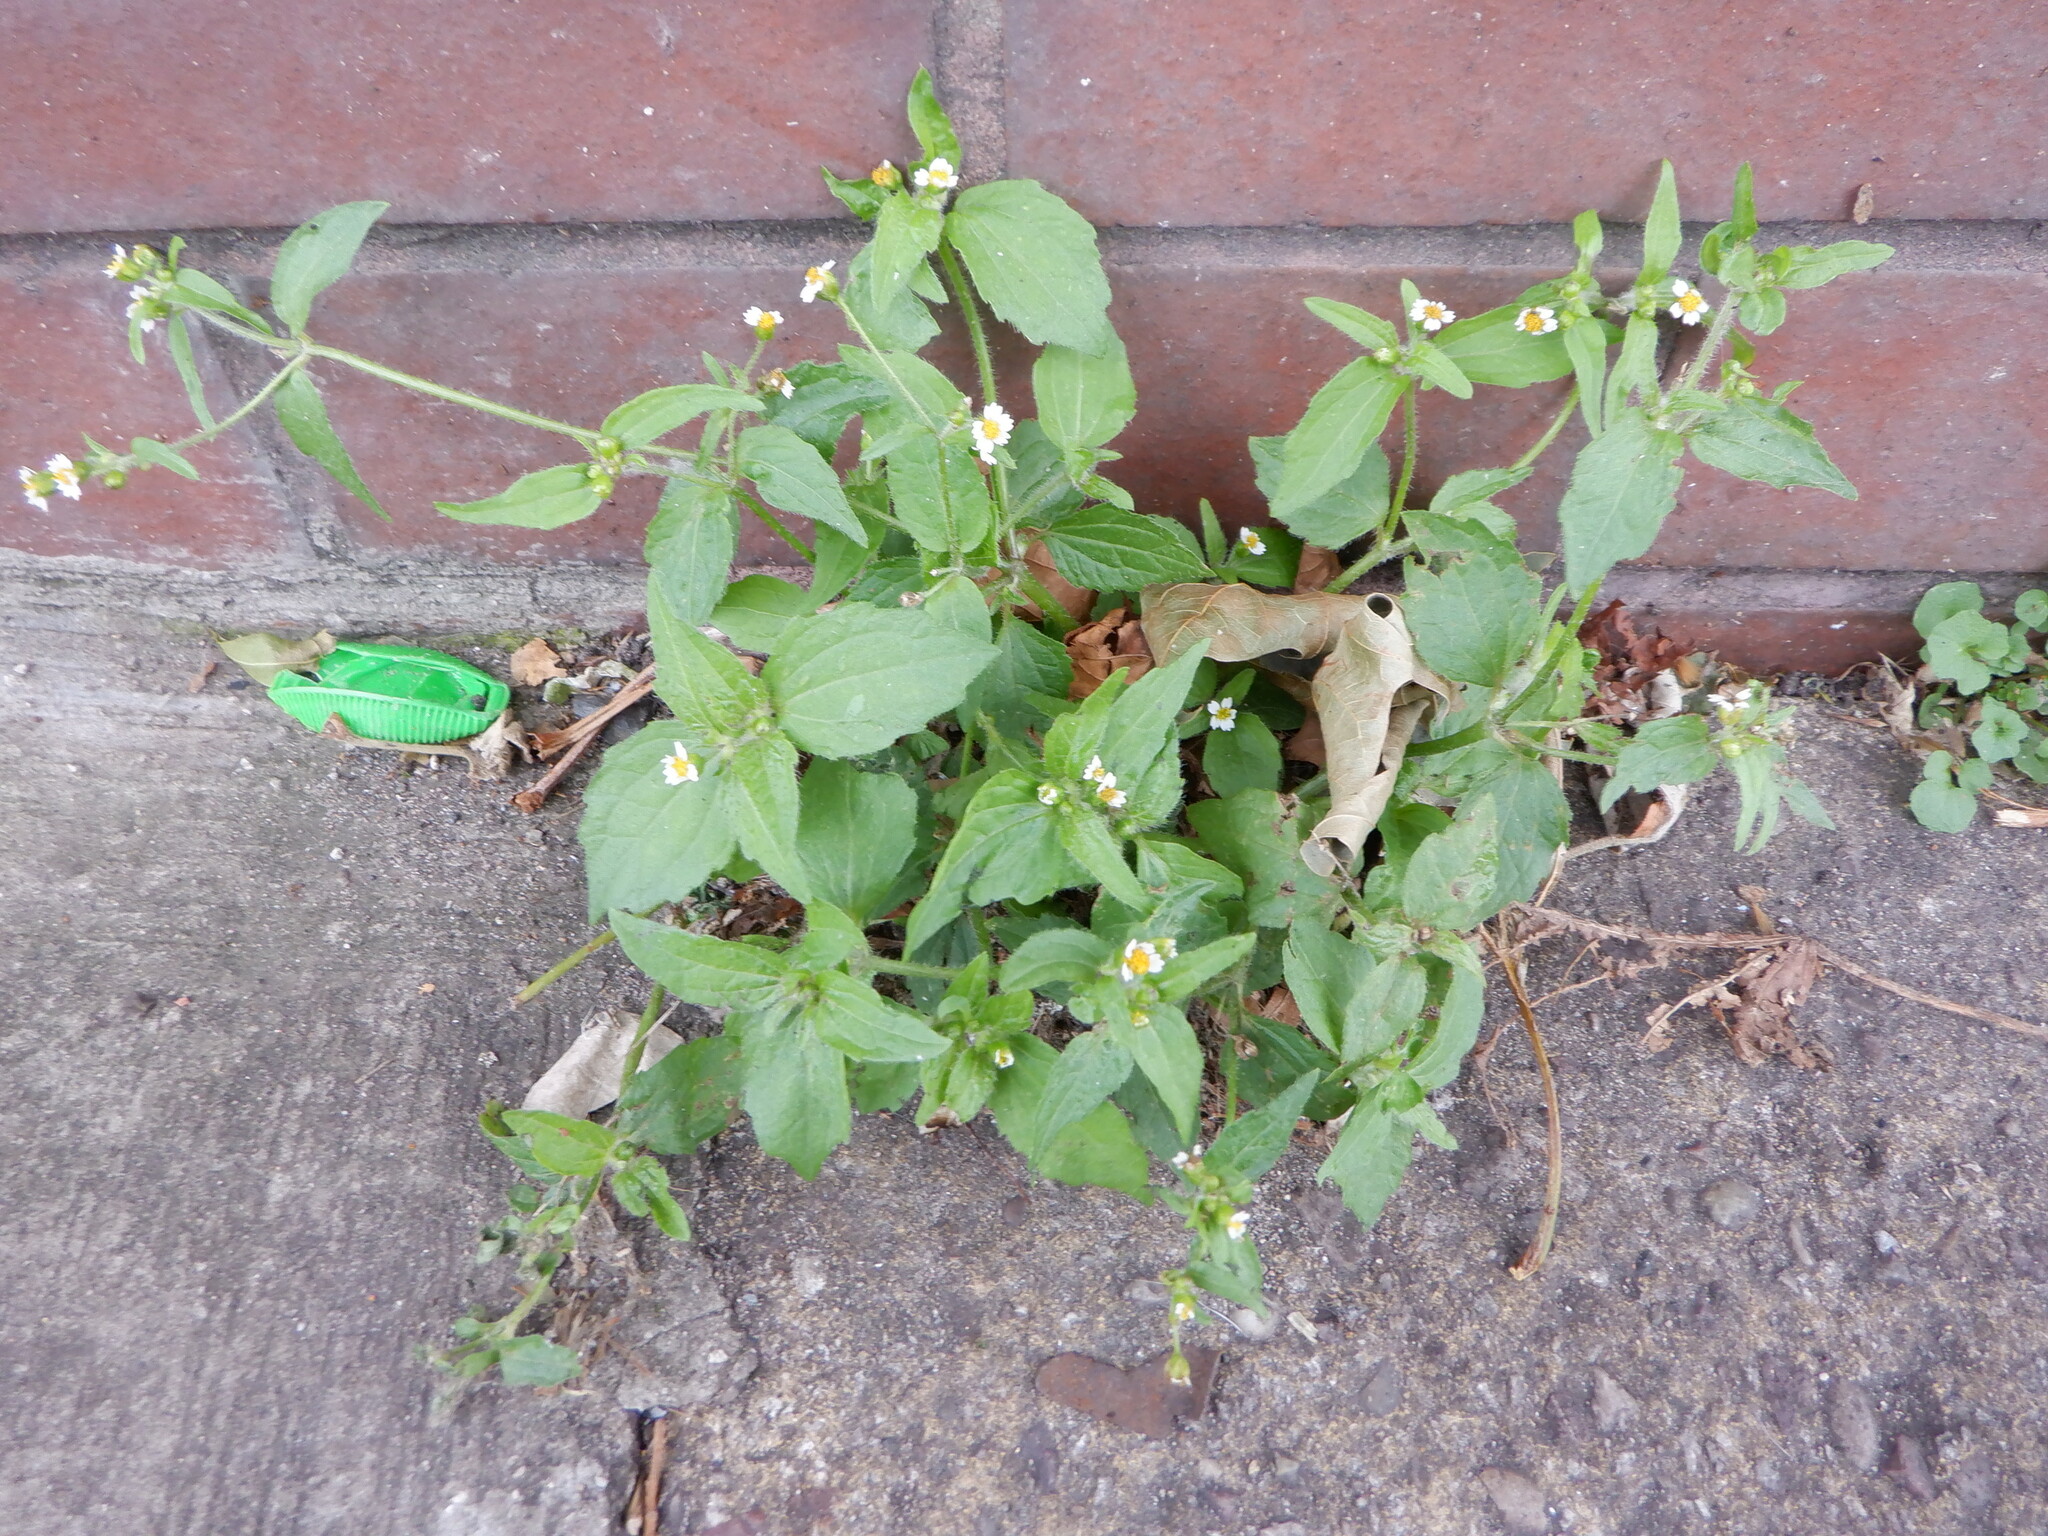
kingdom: Plantae
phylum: Tracheophyta
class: Magnoliopsida
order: Asterales
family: Asteraceae
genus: Galinsoga
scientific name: Galinsoga quadriradiata
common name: Shaggy soldier
